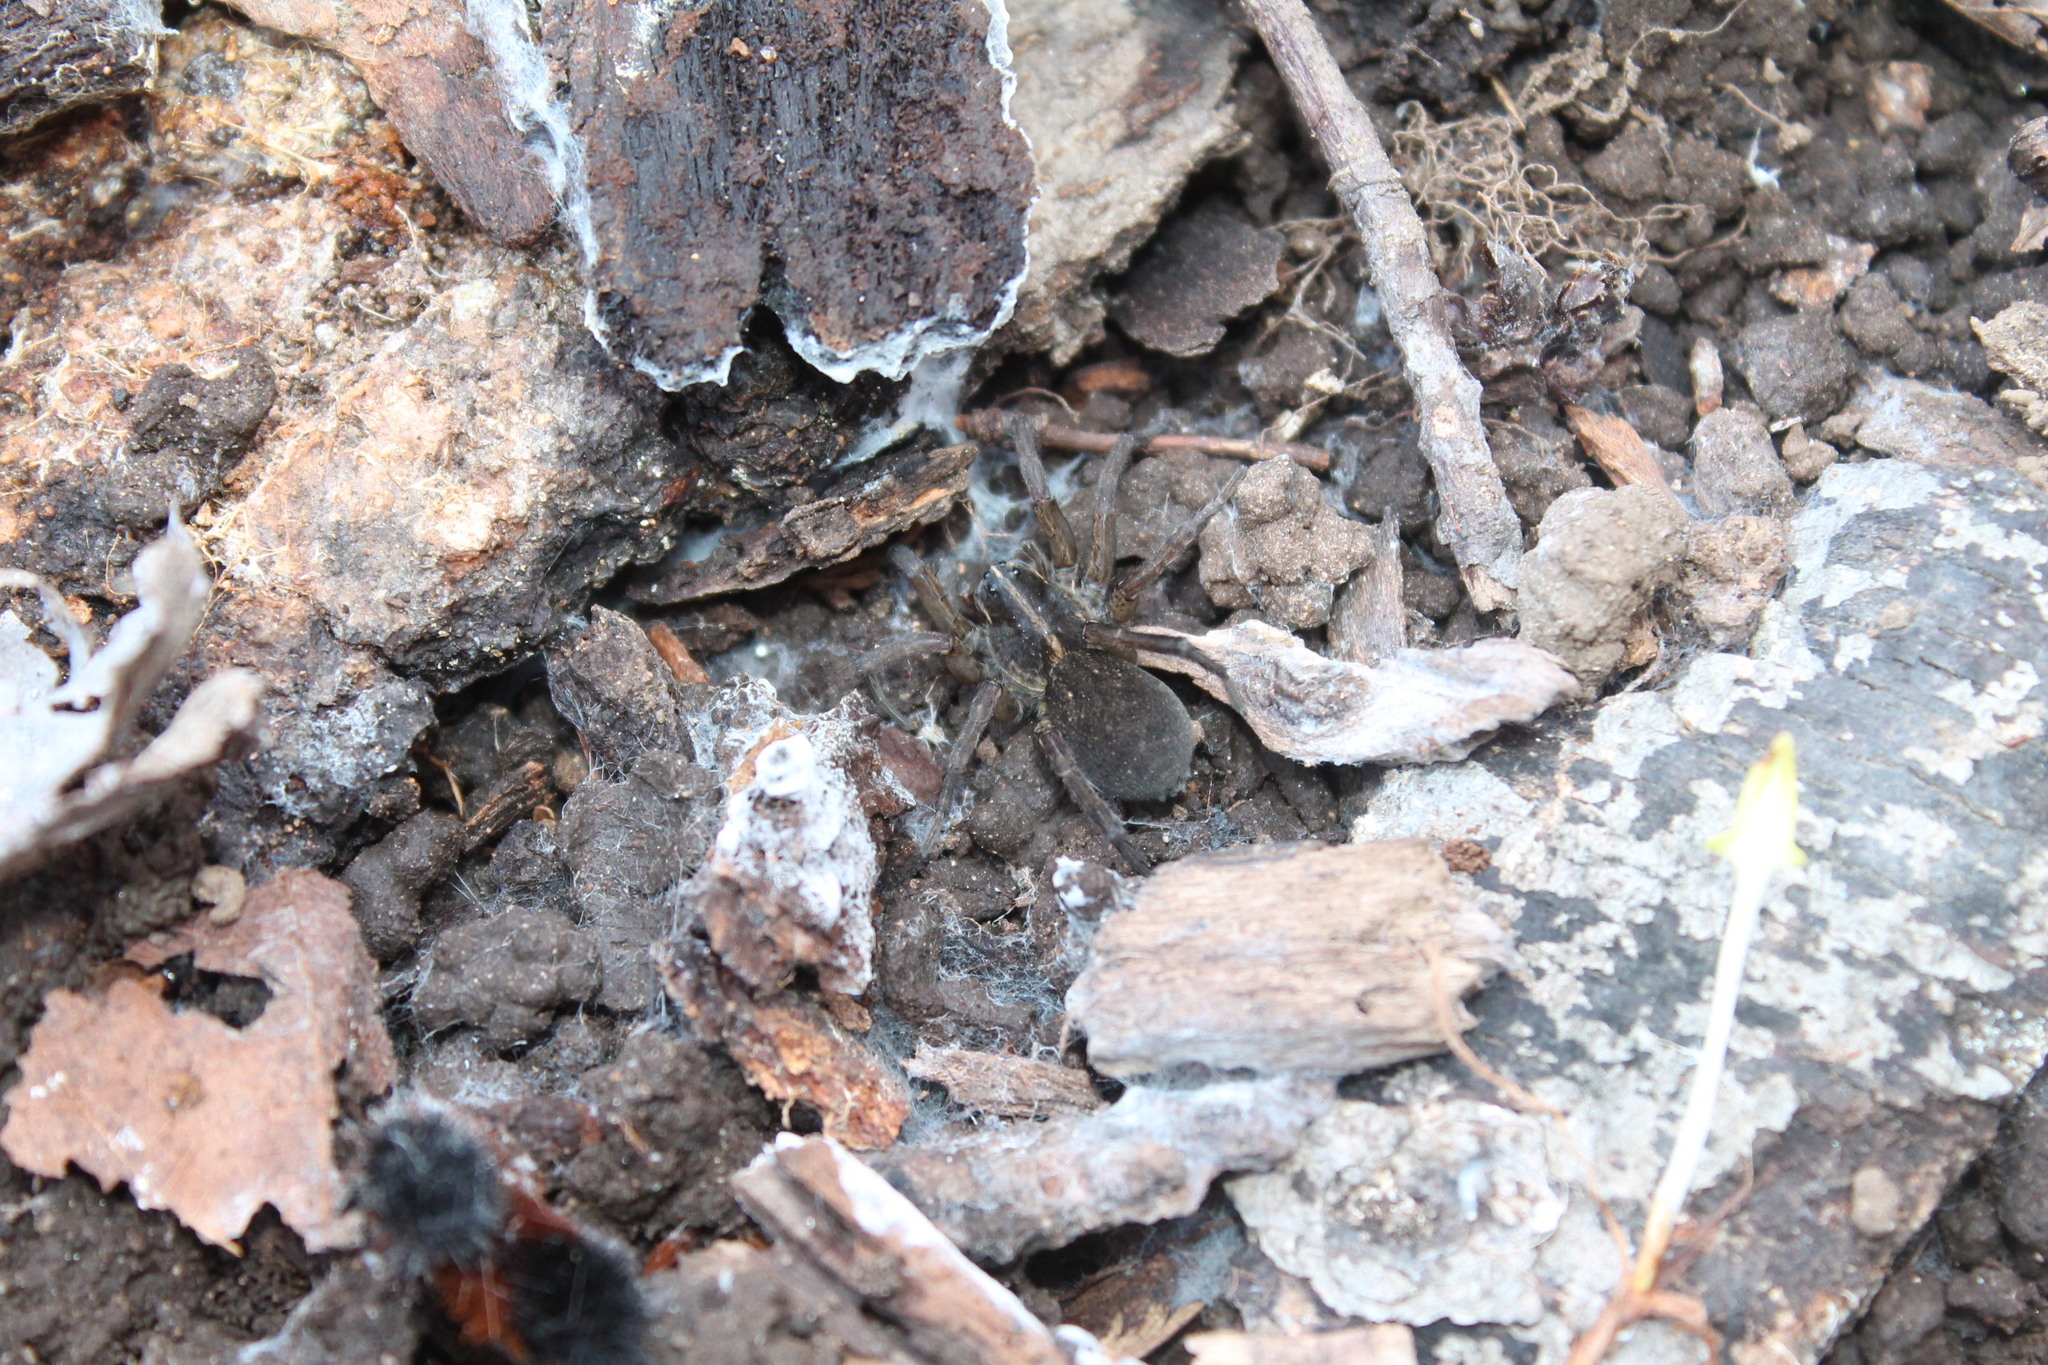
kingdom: Animalia
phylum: Arthropoda
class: Arachnida
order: Araneae
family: Lycosidae
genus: Tigrosa
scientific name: Tigrosa helluo
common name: Wetland giant wolf spider
